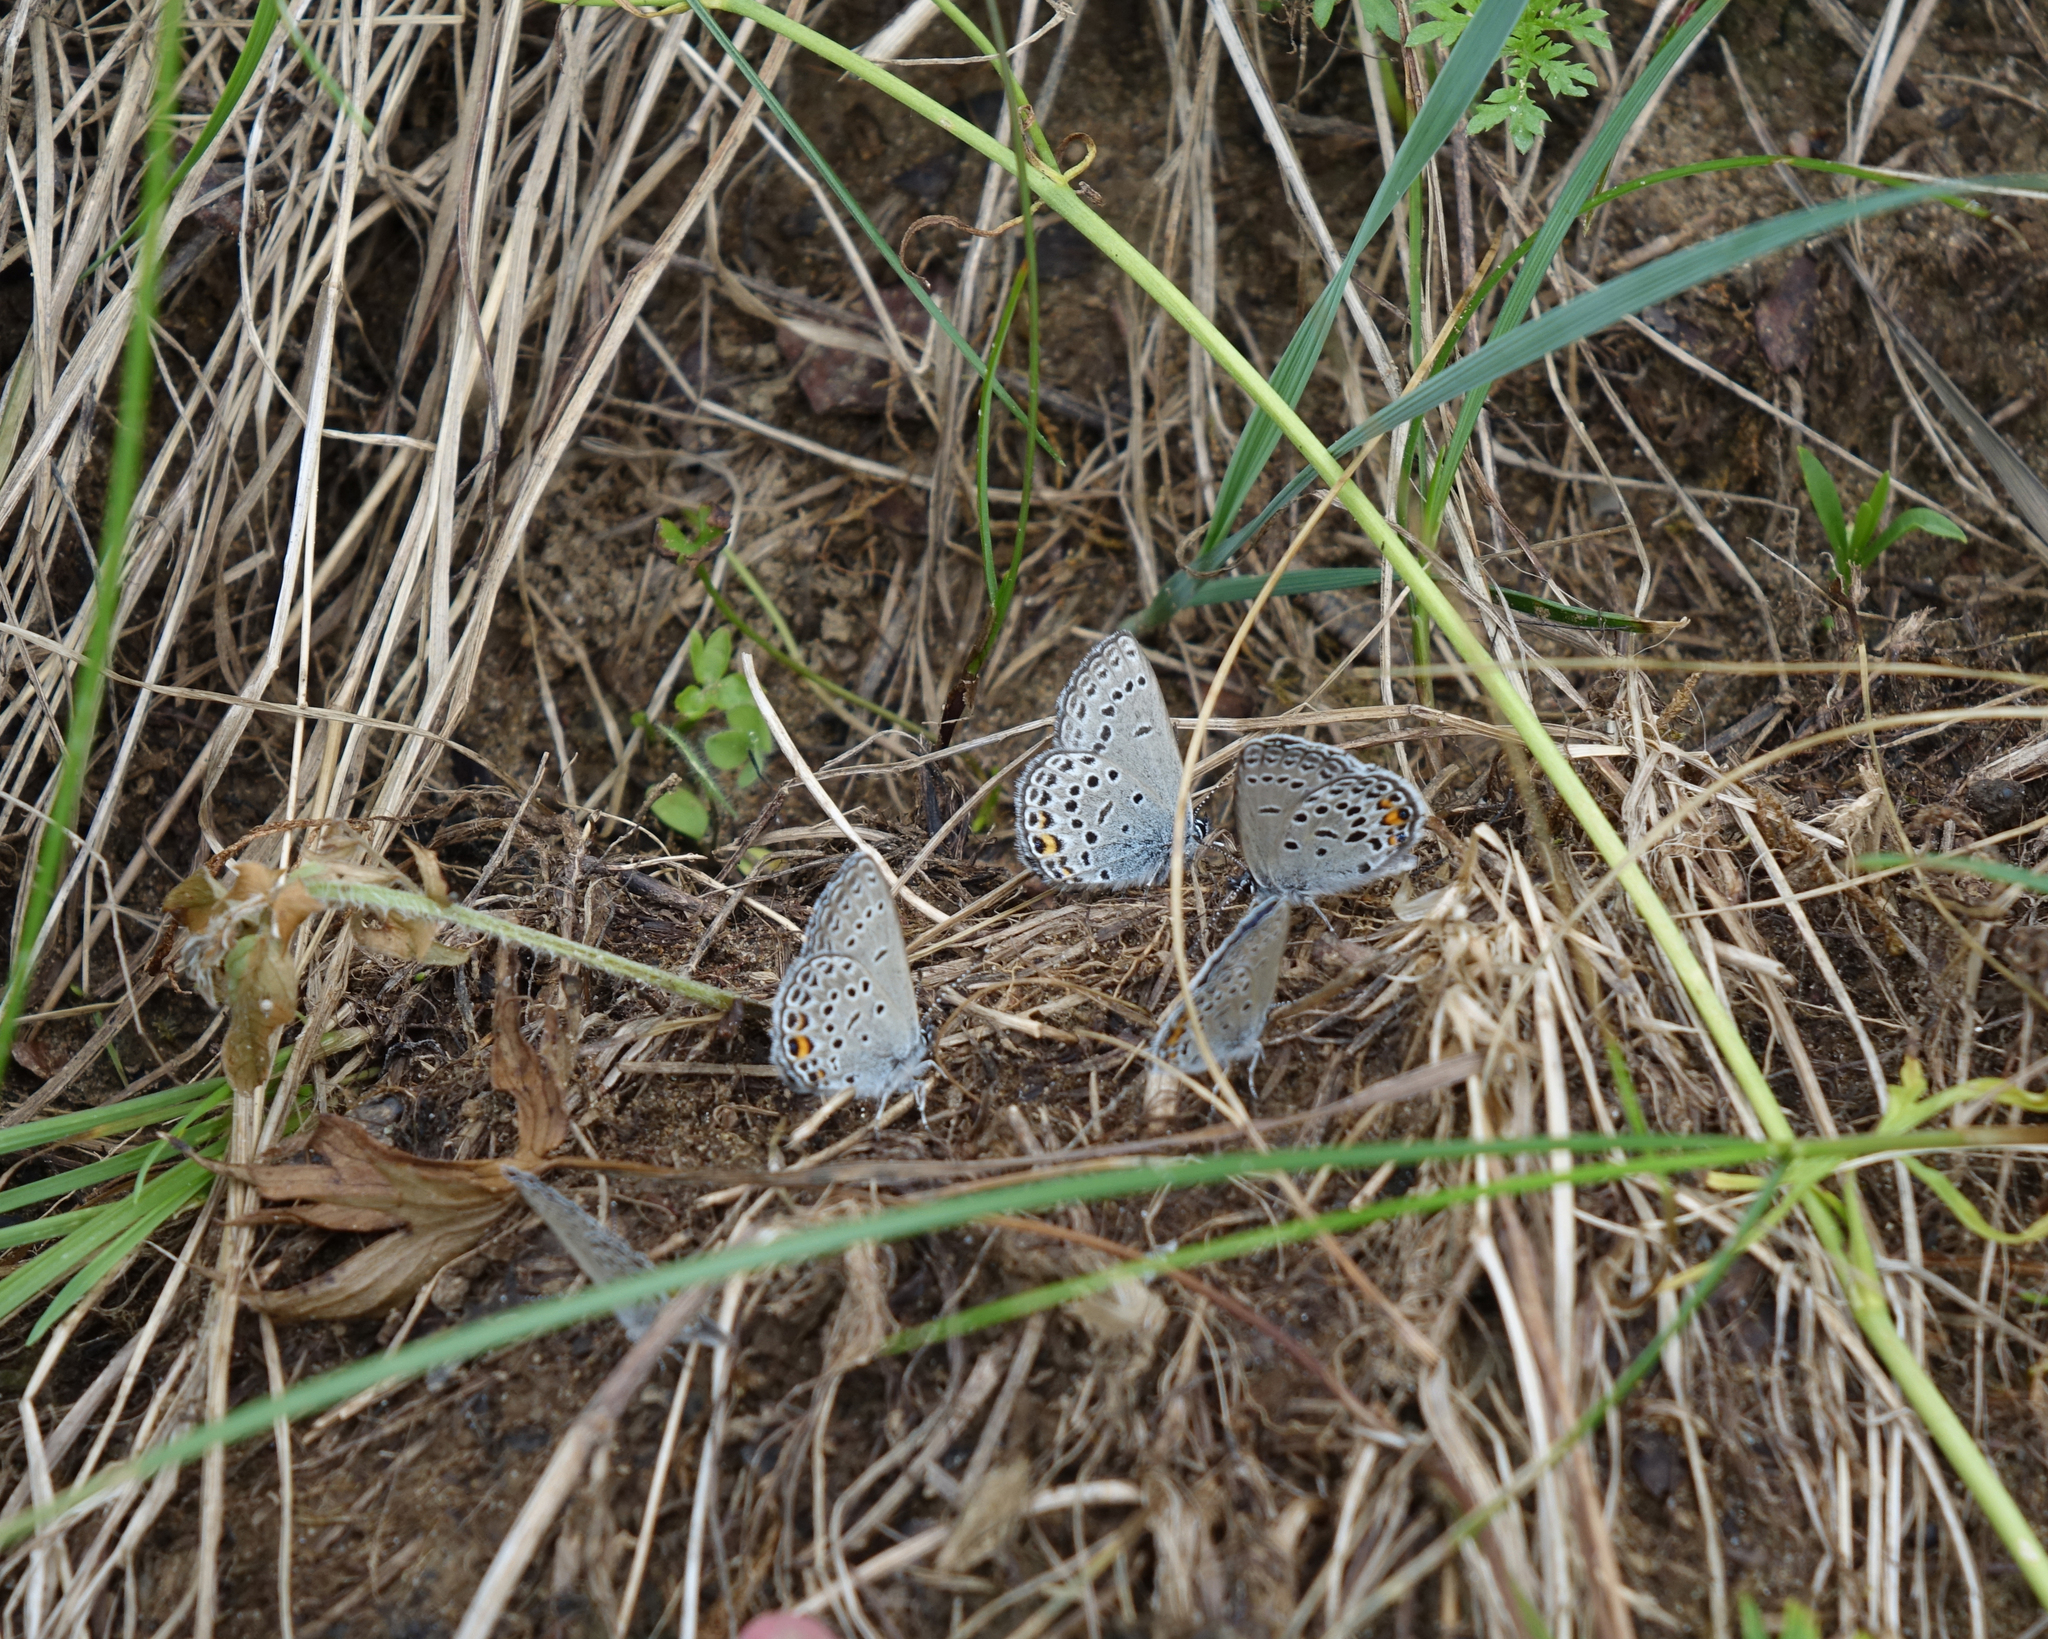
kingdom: Animalia
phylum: Arthropoda
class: Insecta
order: Lepidoptera
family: Lycaenidae
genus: Vacciniina
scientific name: Vacciniina optilete
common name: Cranberry blue
